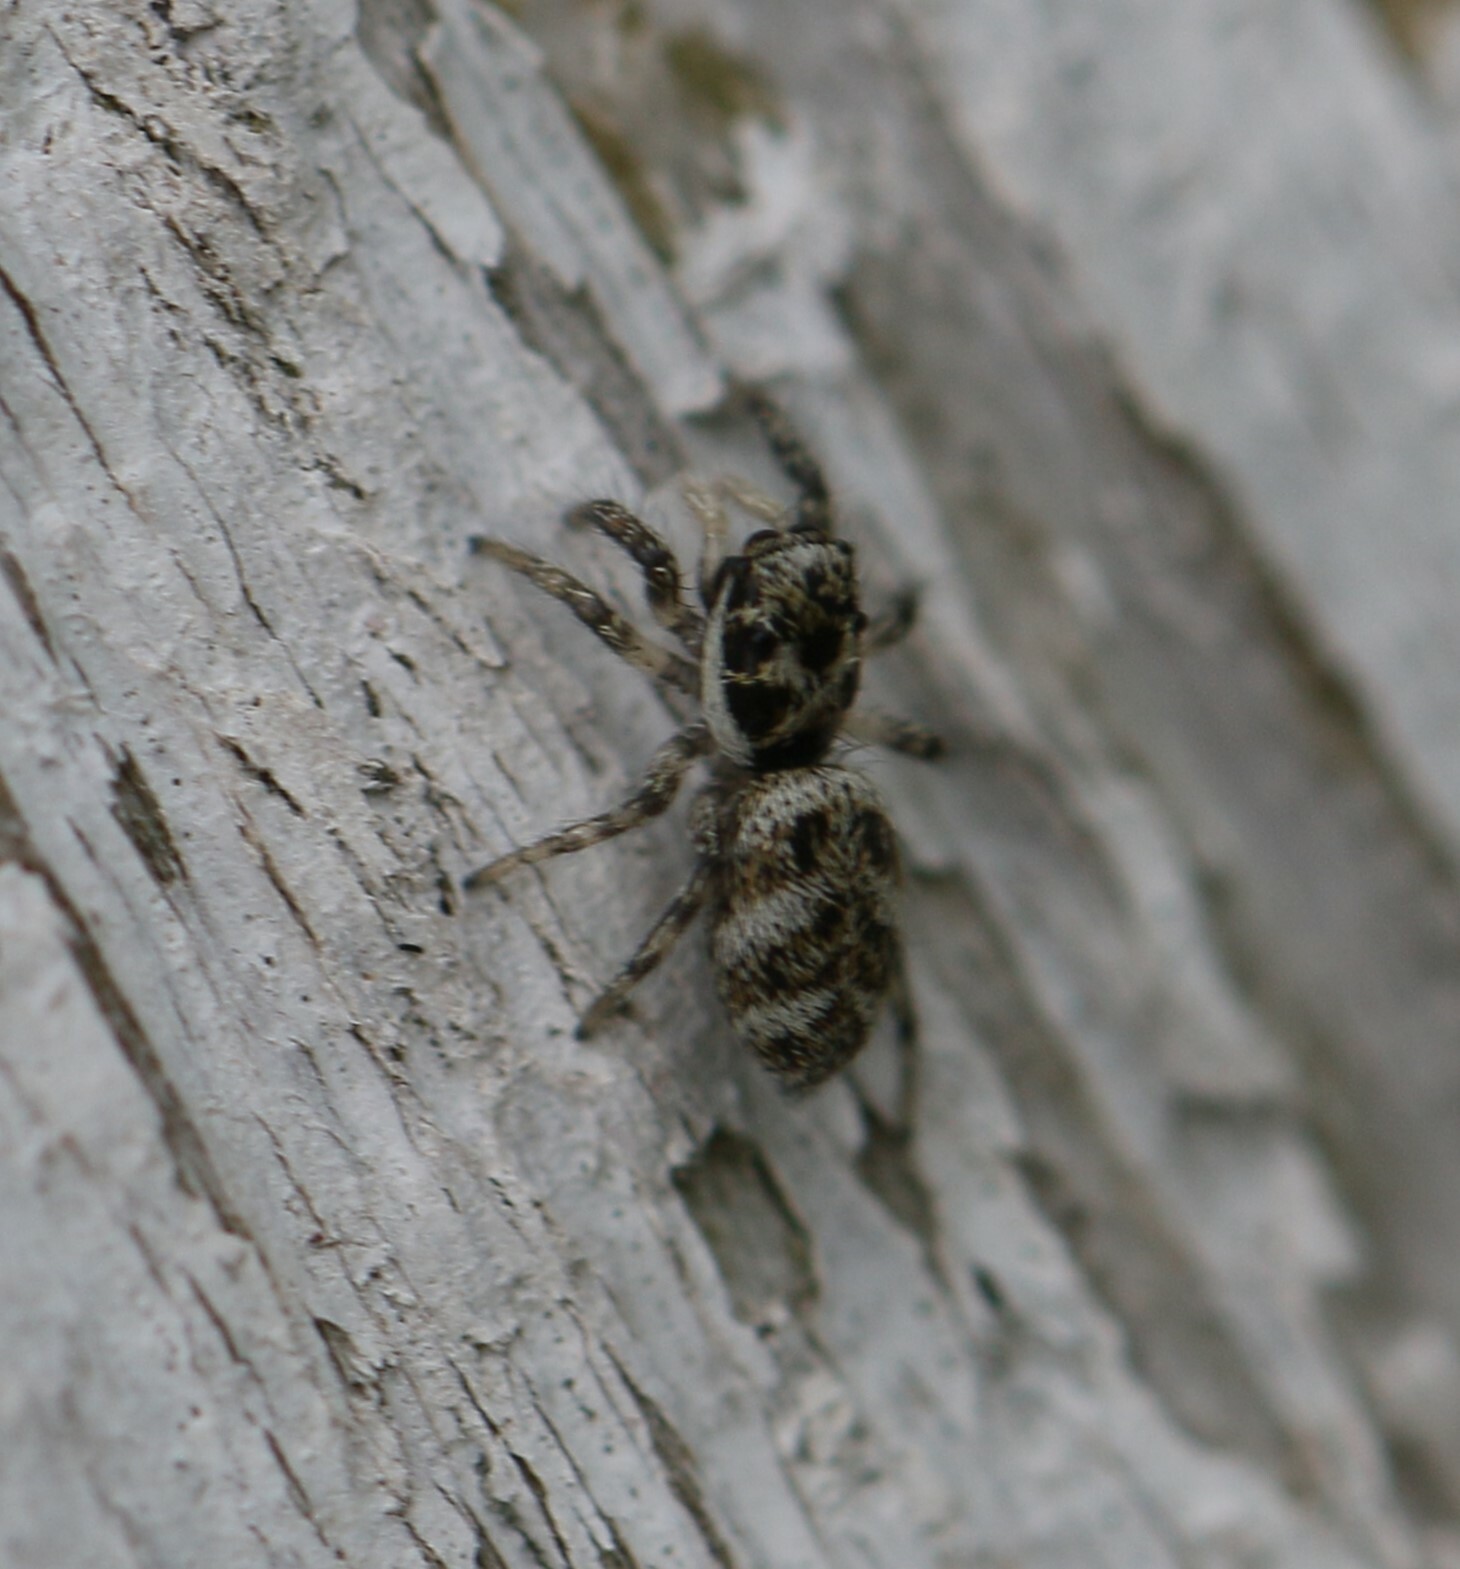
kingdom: Animalia
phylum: Arthropoda
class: Arachnida
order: Araneae
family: Salticidae
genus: Salticus
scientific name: Salticus scenicus
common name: Zebra jumper
